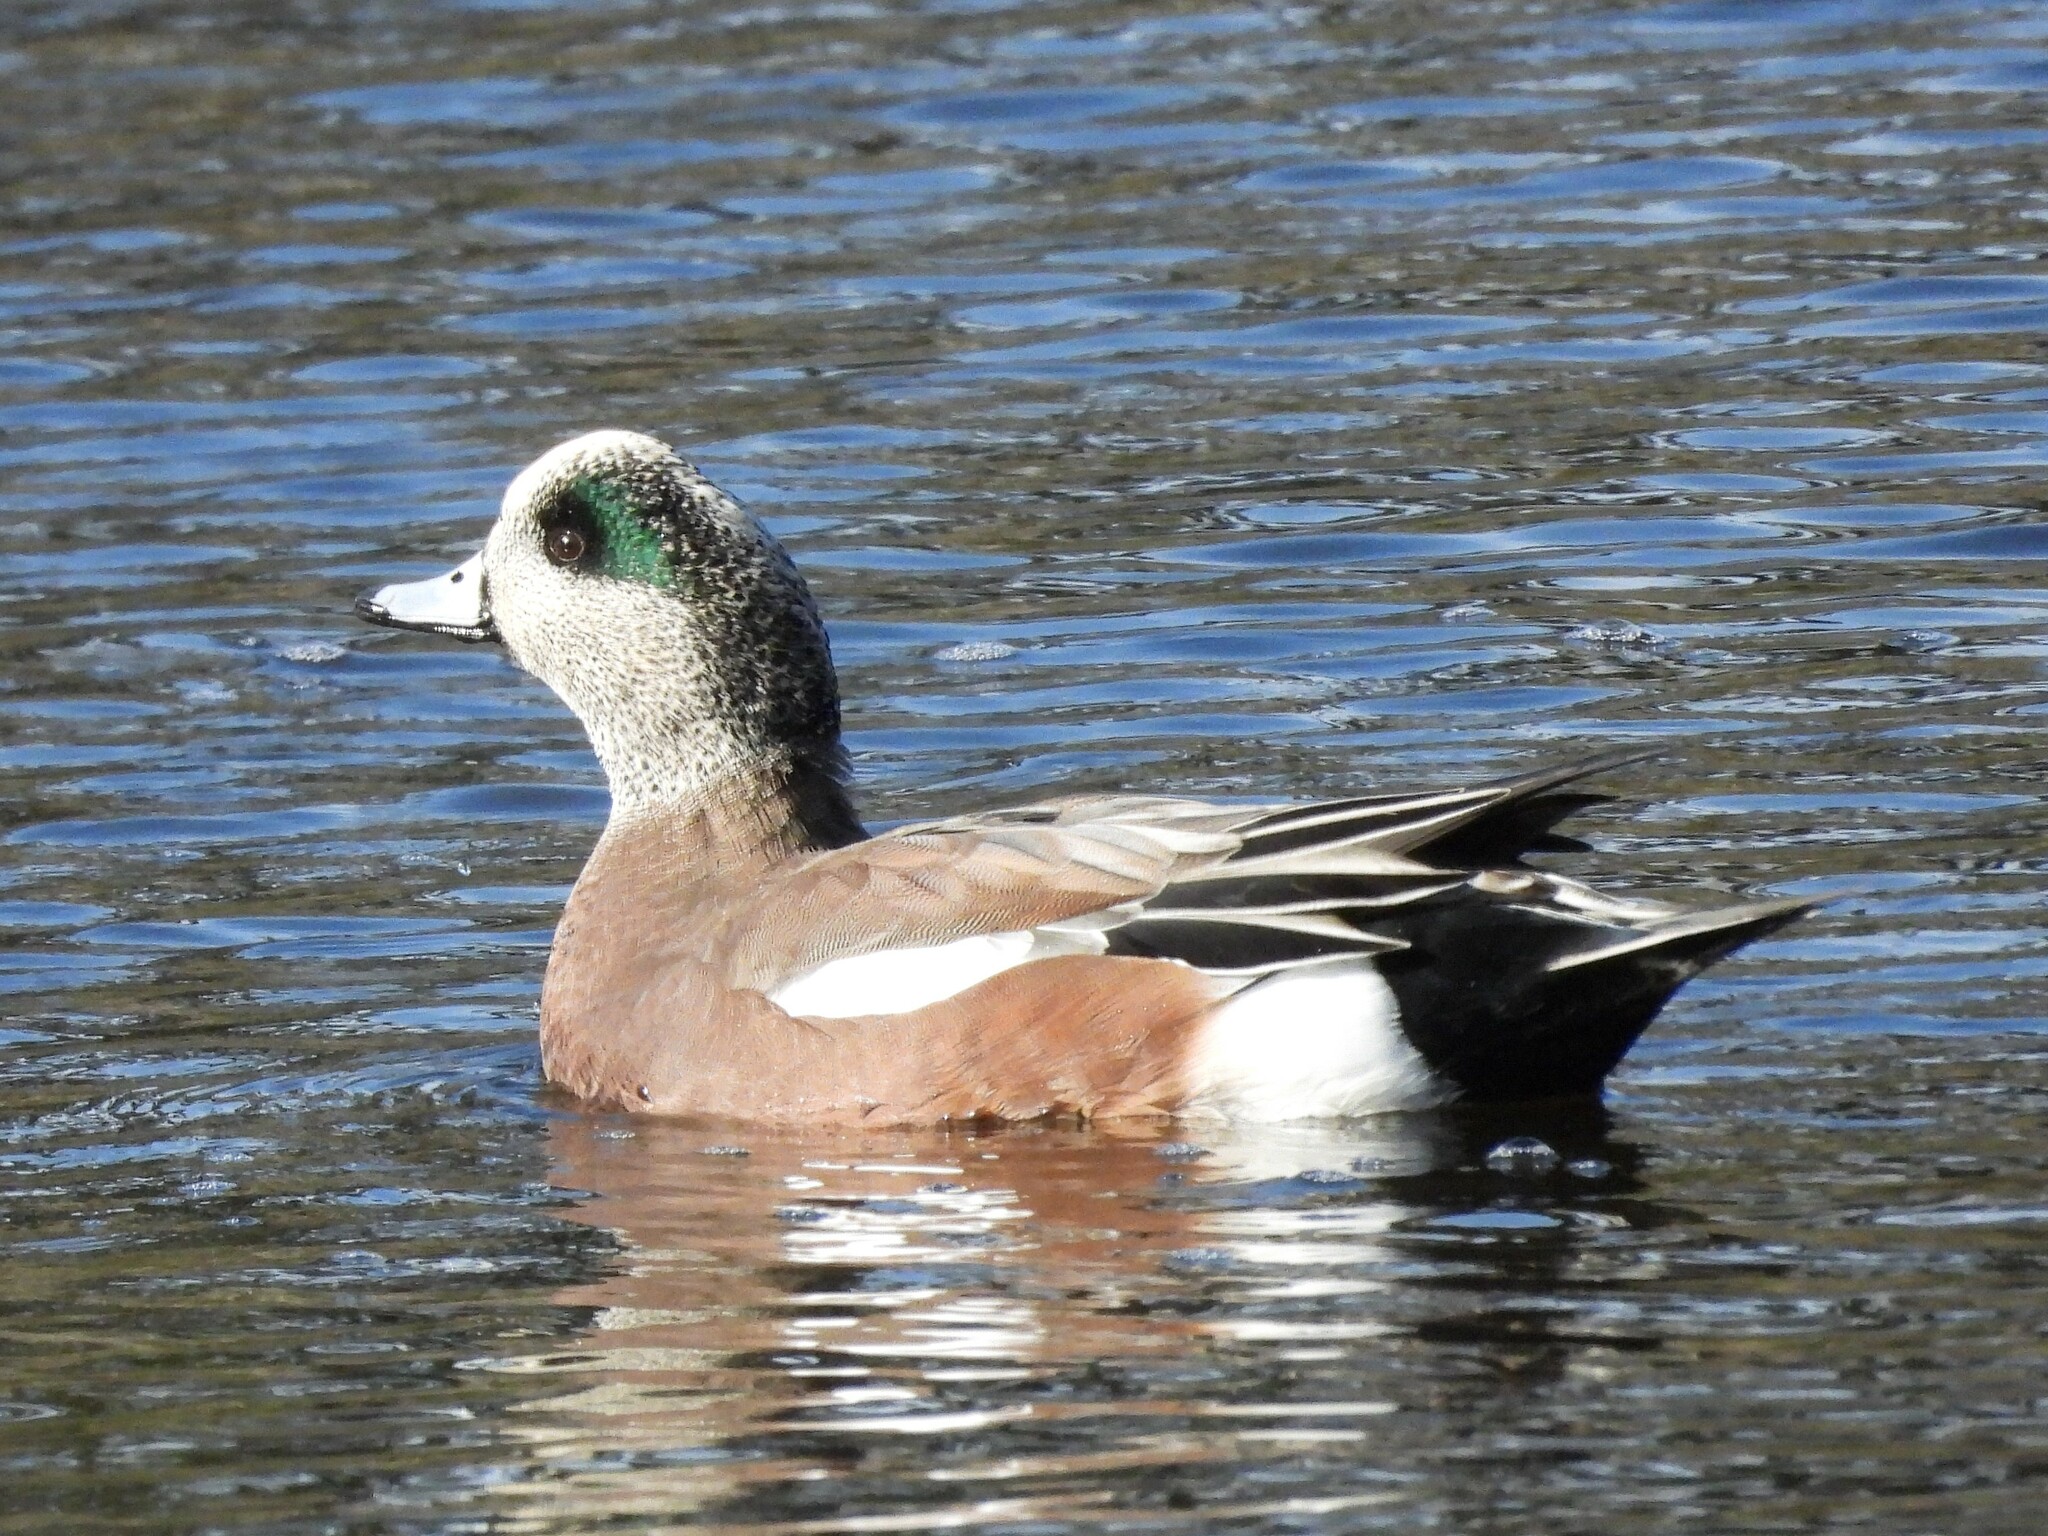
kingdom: Animalia
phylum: Chordata
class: Aves
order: Anseriformes
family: Anatidae
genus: Mareca
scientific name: Mareca americana
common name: American wigeon
